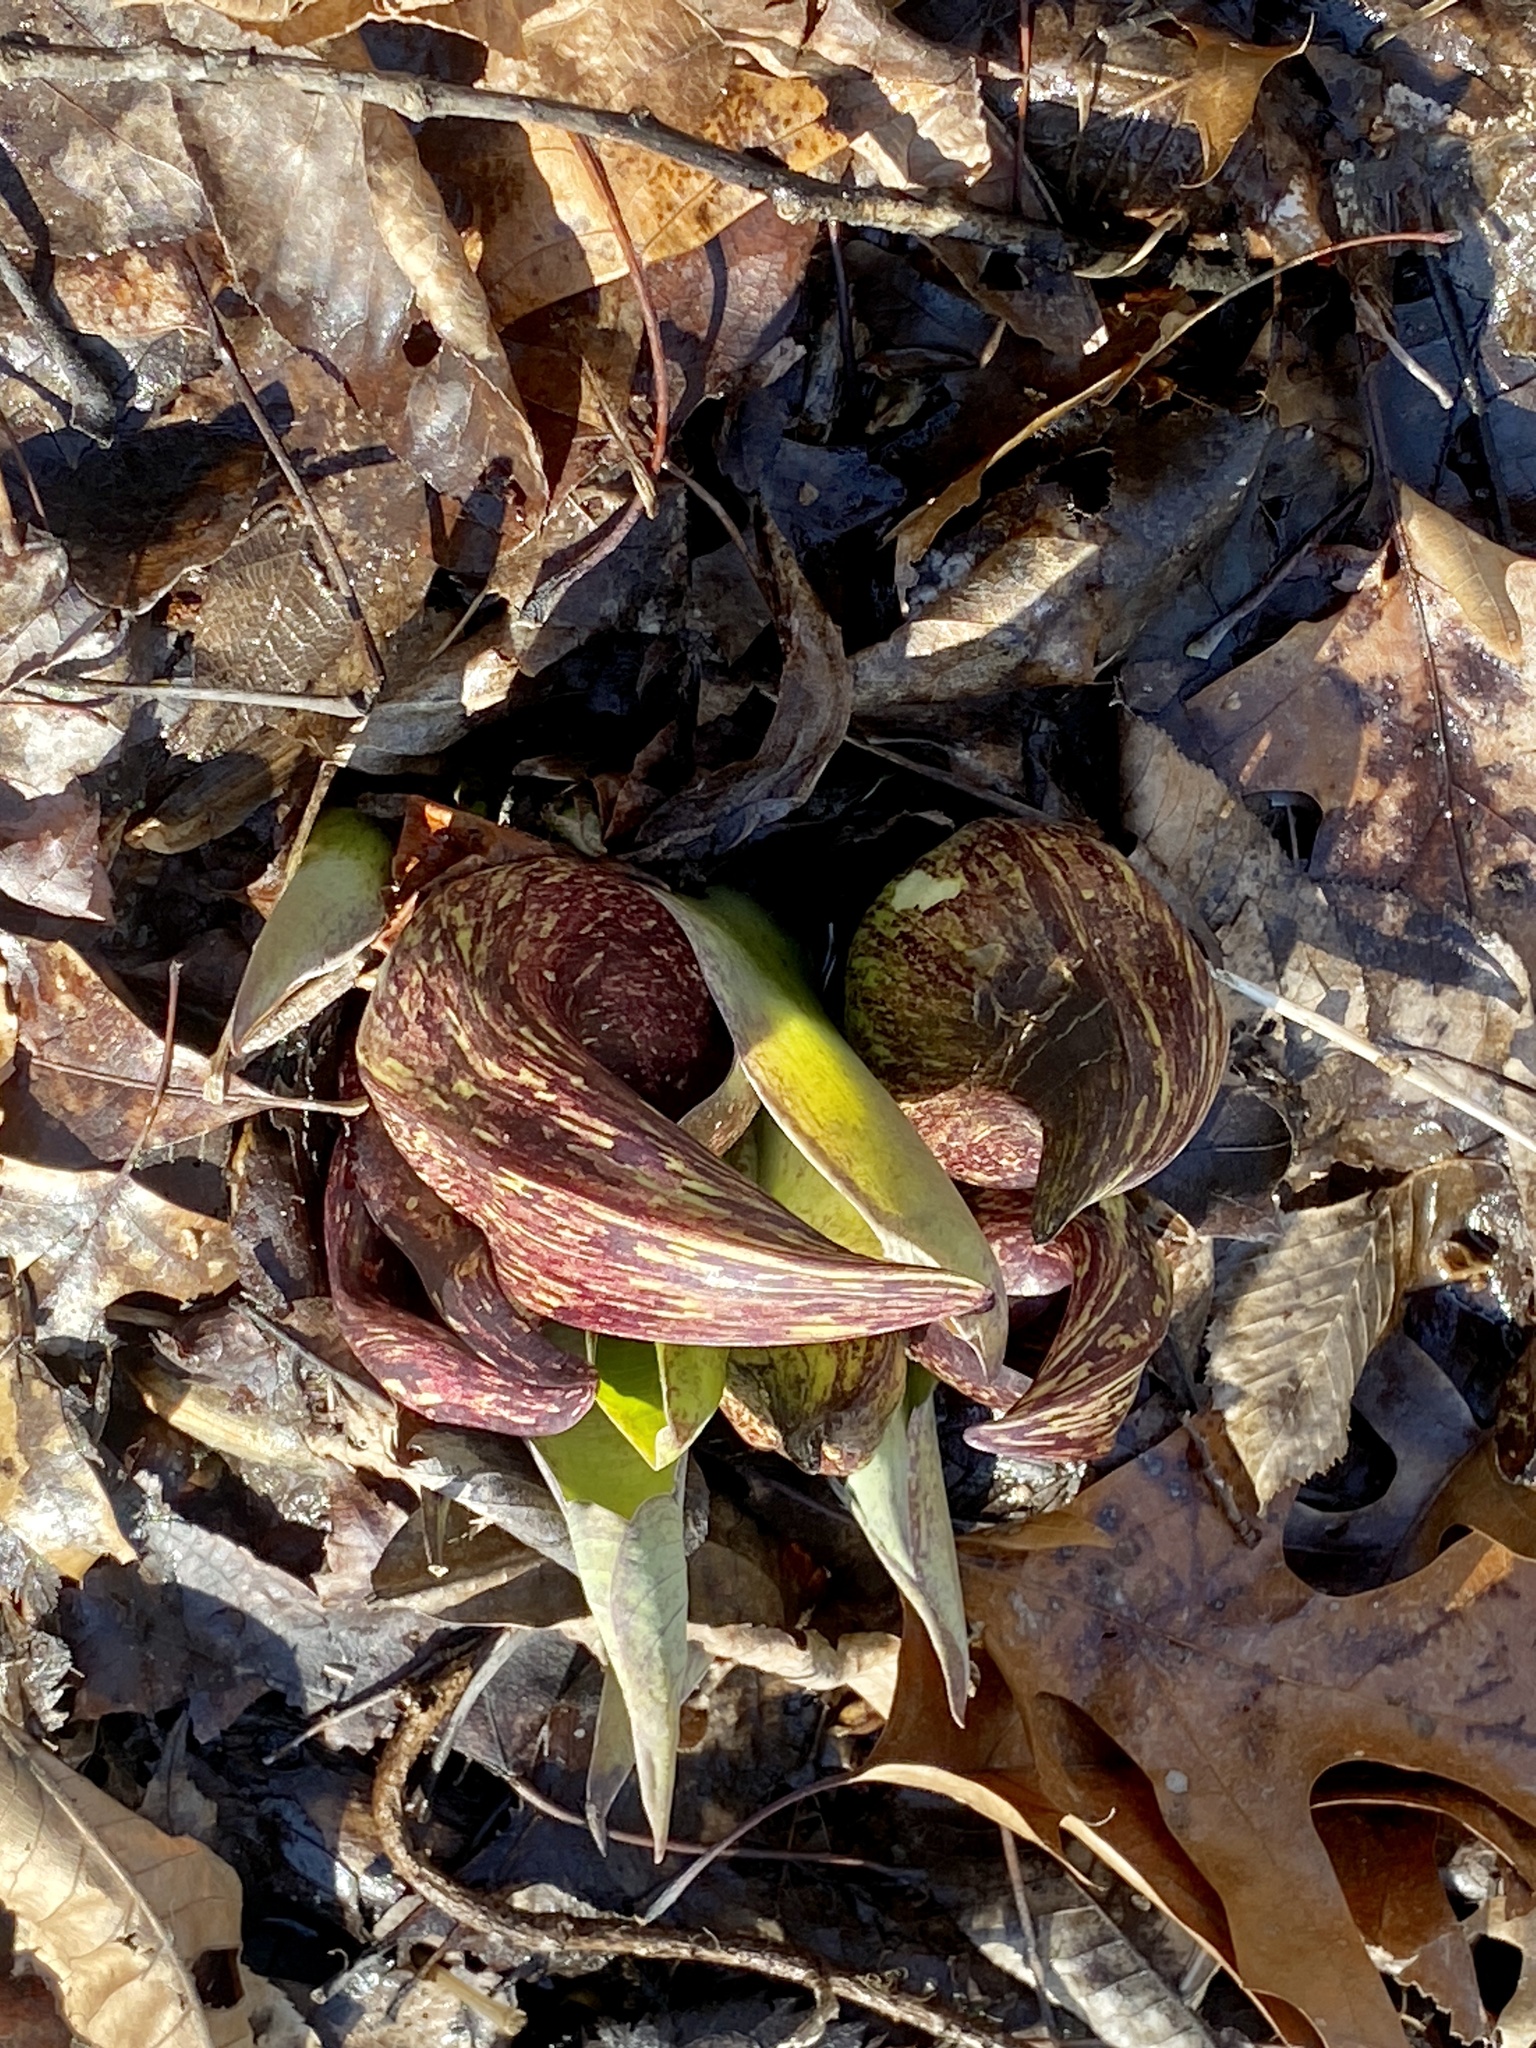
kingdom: Plantae
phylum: Tracheophyta
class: Liliopsida
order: Alismatales
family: Araceae
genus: Symplocarpus
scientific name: Symplocarpus foetidus
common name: Eastern skunk cabbage
